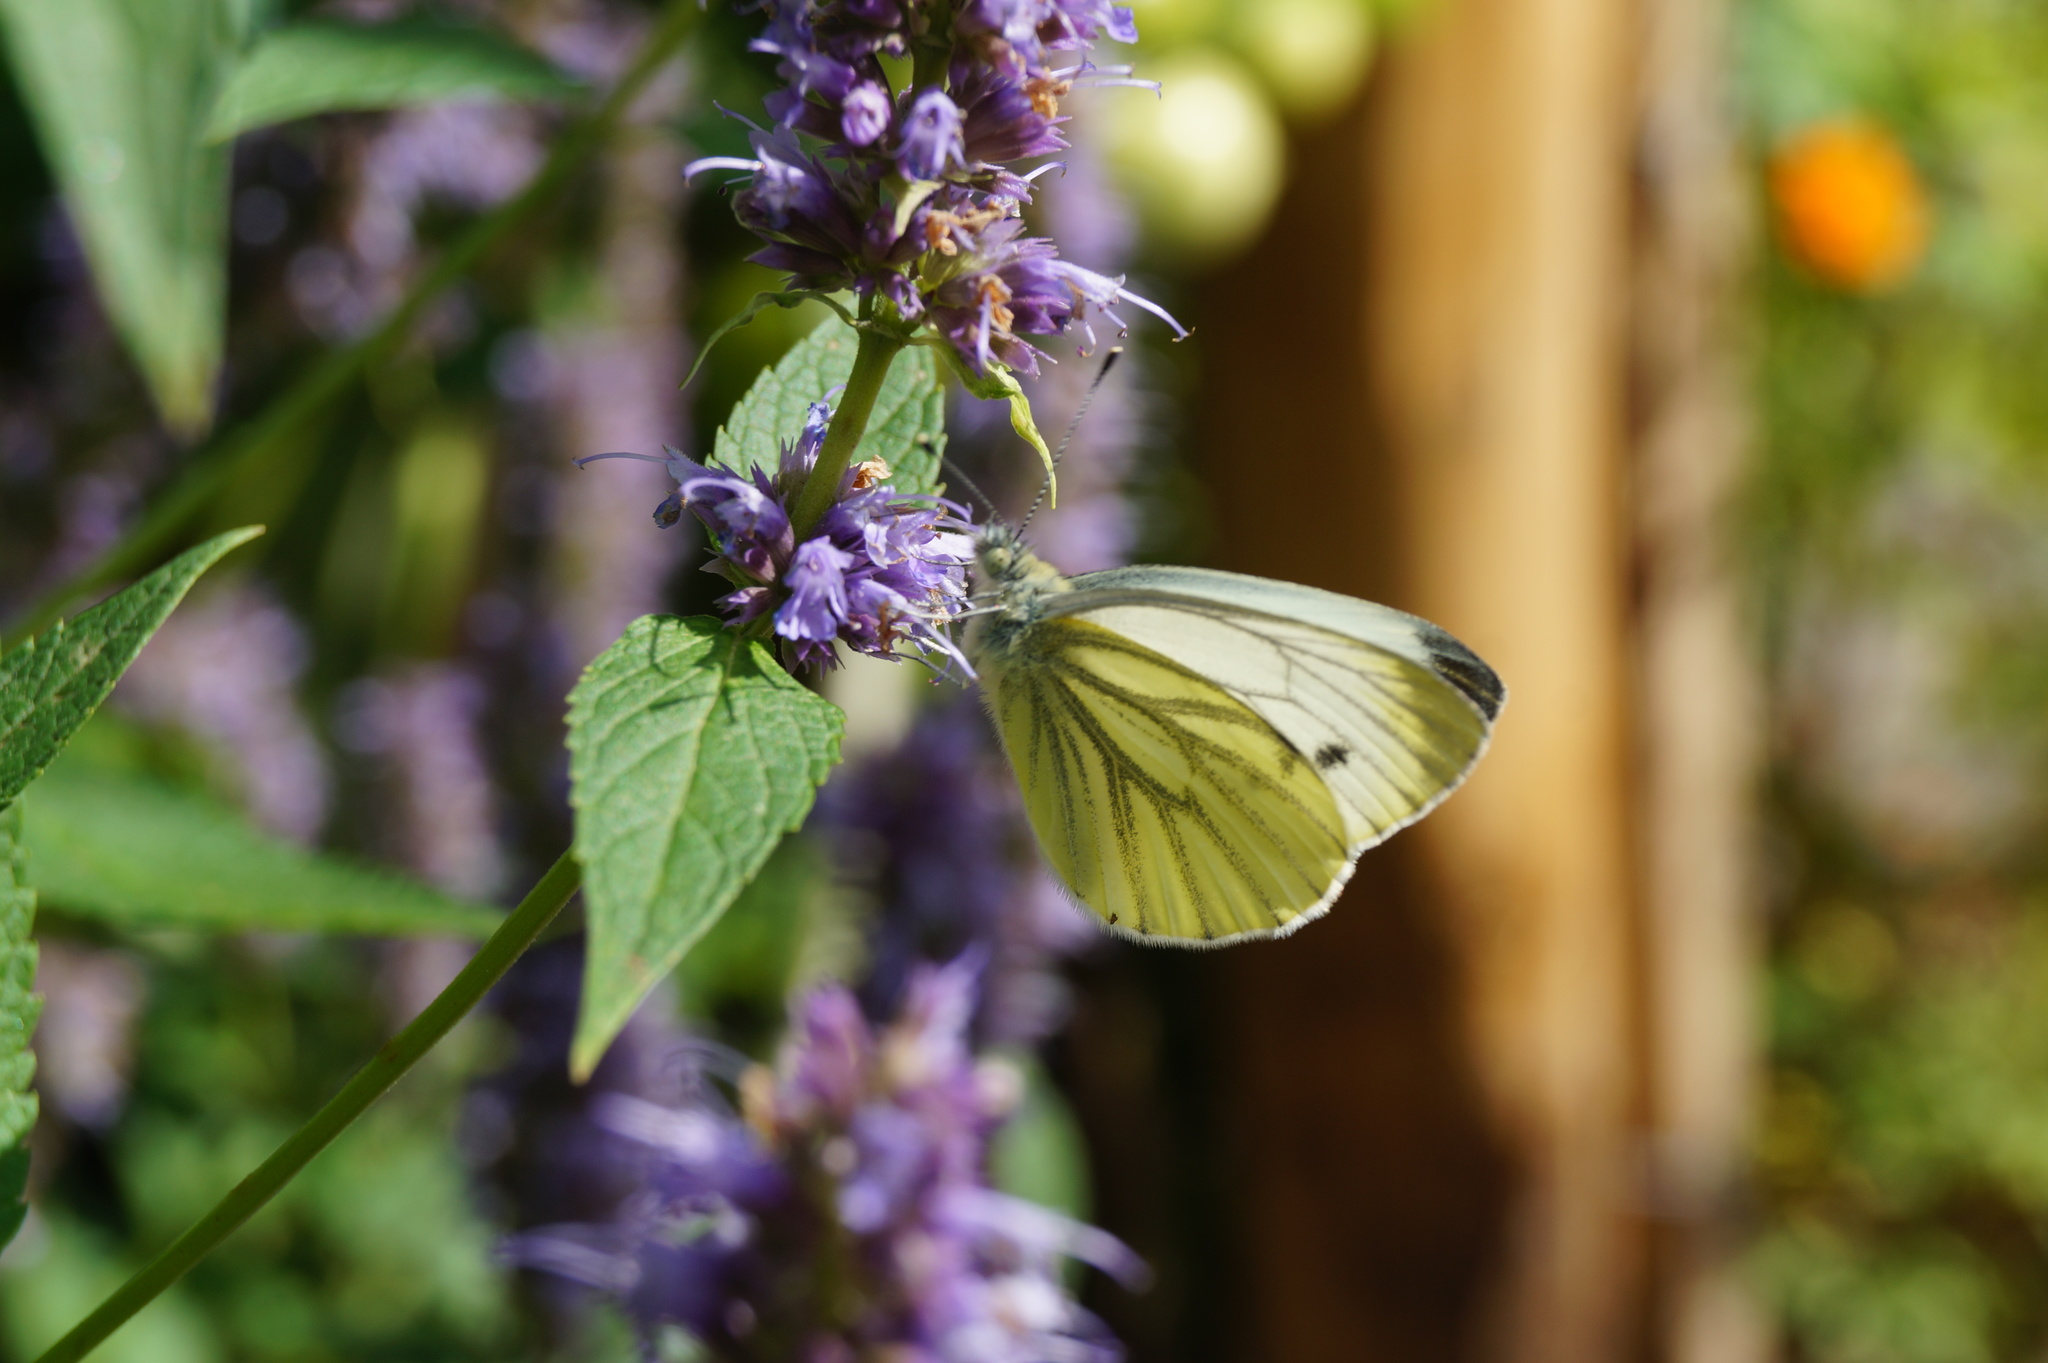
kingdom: Animalia
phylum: Arthropoda
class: Insecta
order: Lepidoptera
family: Pieridae
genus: Pieris
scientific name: Pieris napi
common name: Green-veined white
